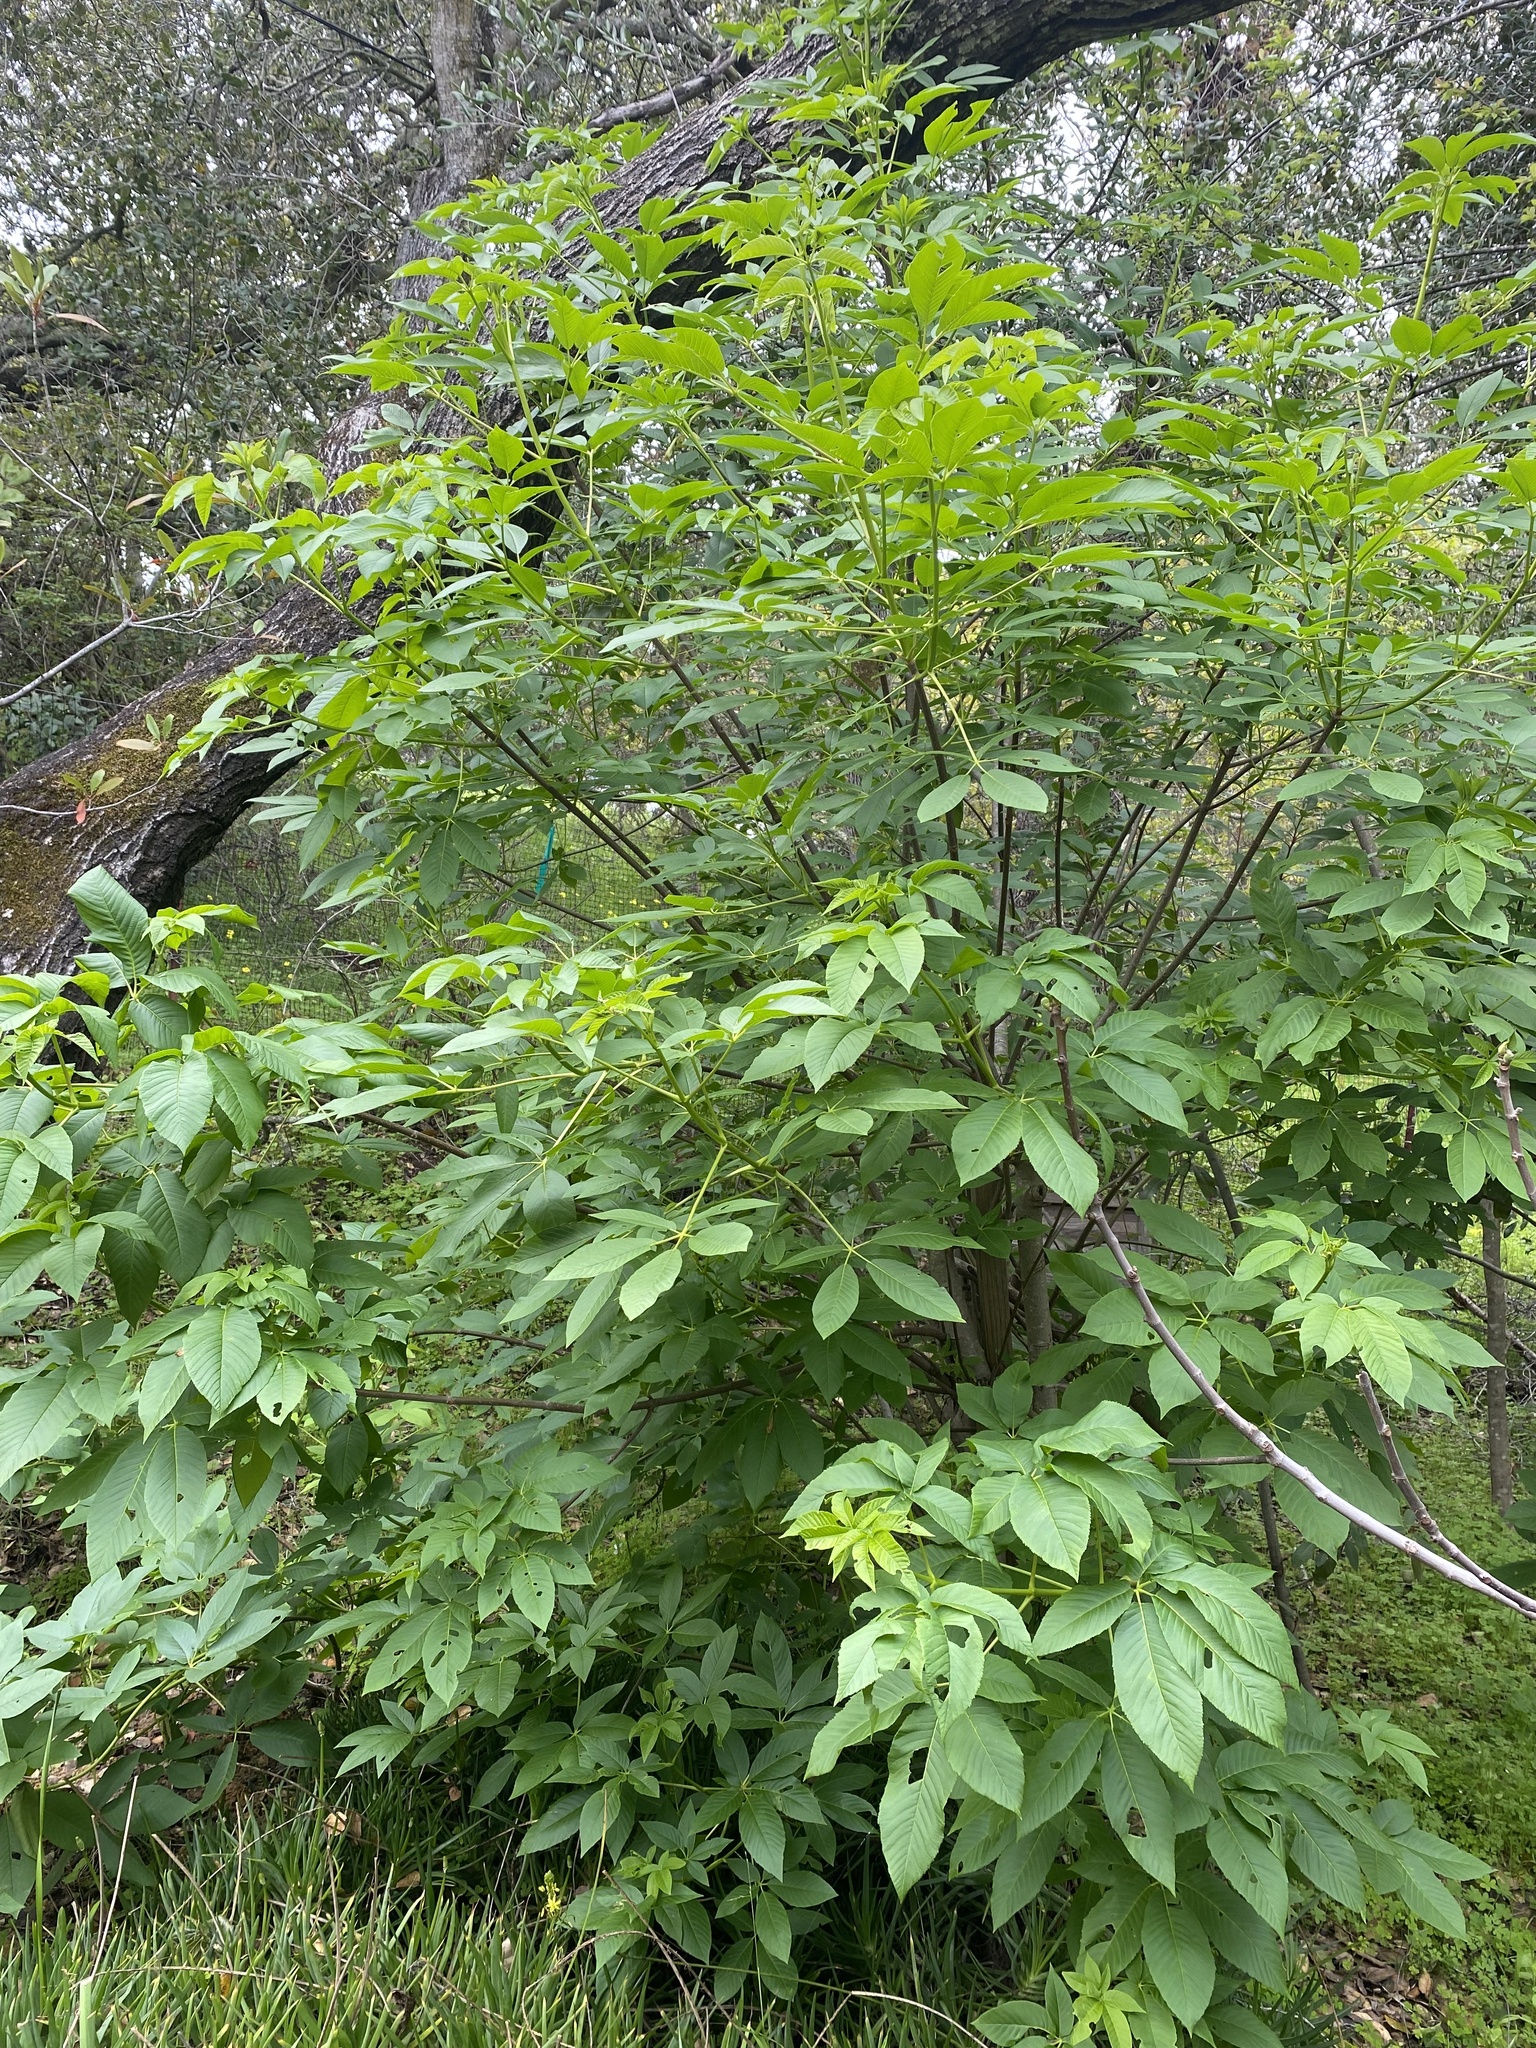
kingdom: Plantae
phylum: Tracheophyta
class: Magnoliopsida
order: Sapindales
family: Sapindaceae
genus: Aesculus
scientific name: Aesculus californica
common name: California buckeye
